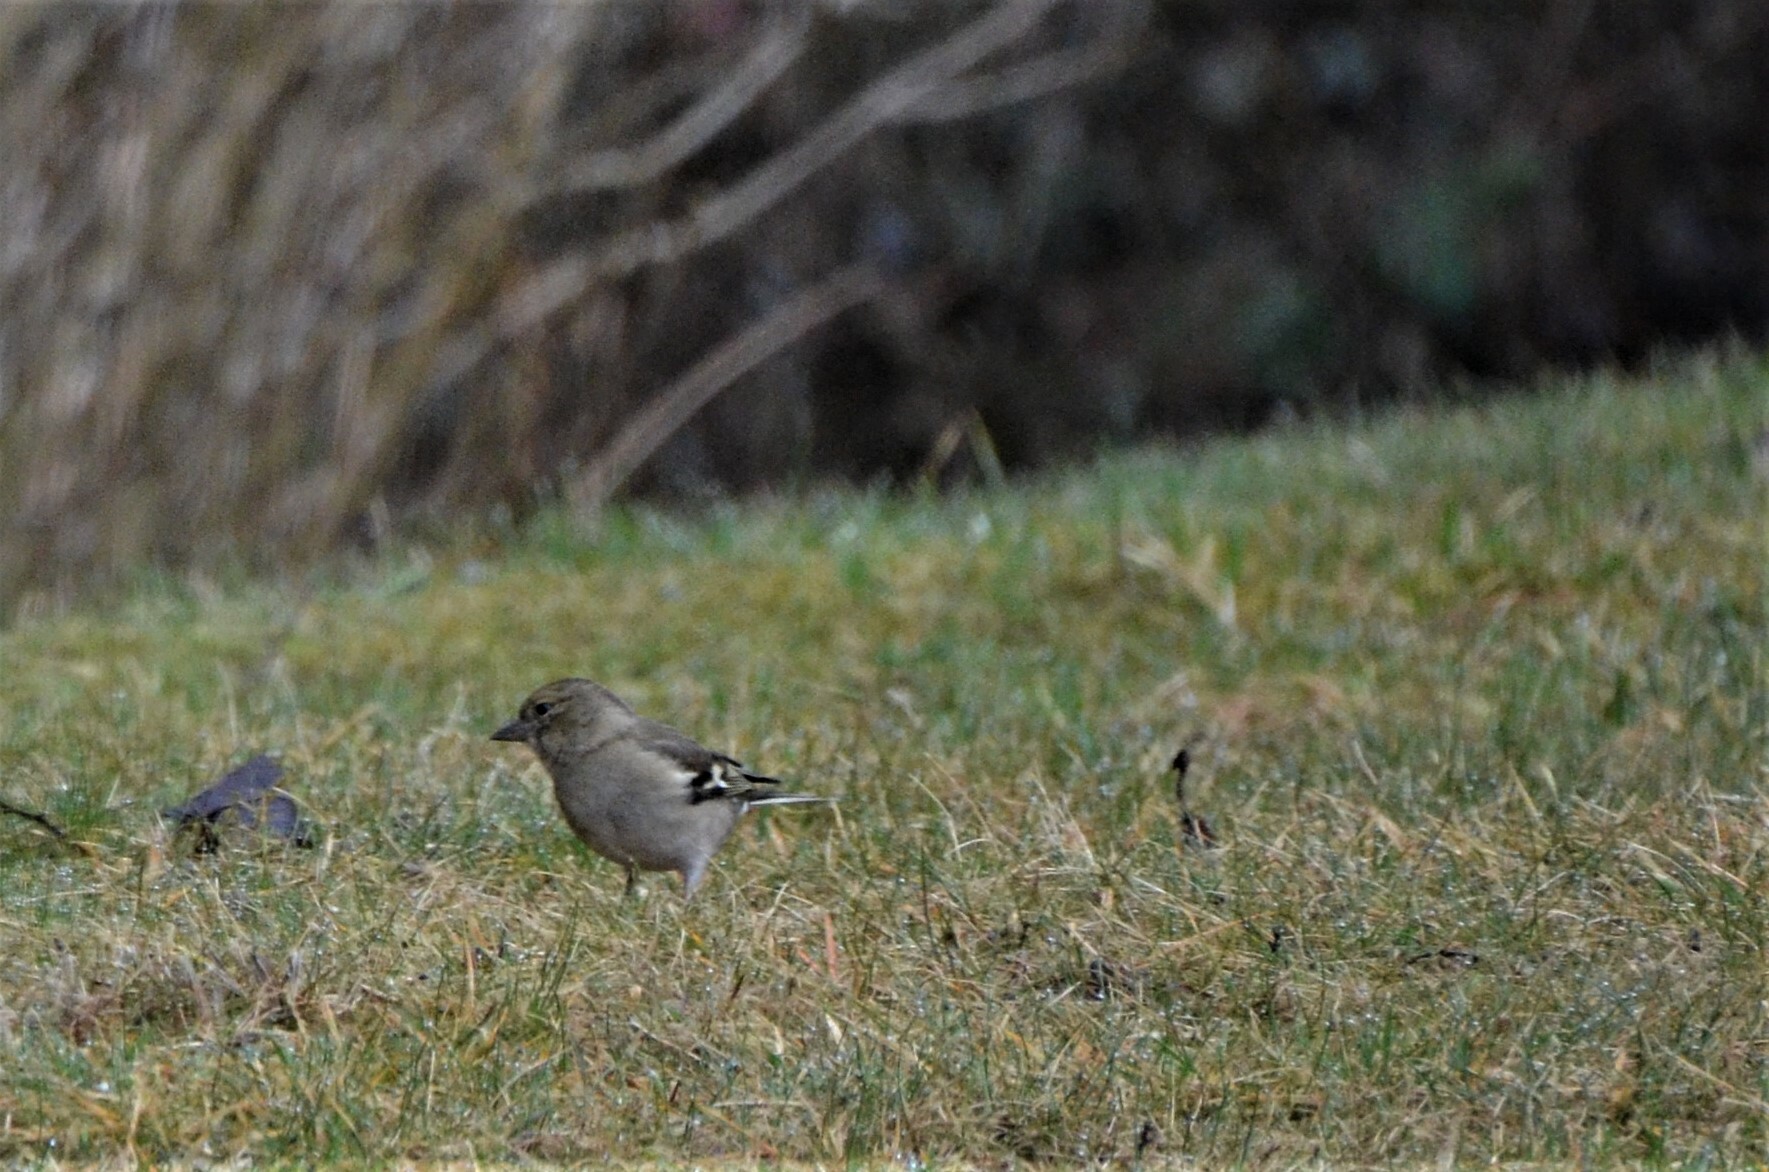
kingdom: Animalia
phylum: Chordata
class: Aves
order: Passeriformes
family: Fringillidae
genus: Fringilla
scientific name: Fringilla coelebs
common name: Common chaffinch
